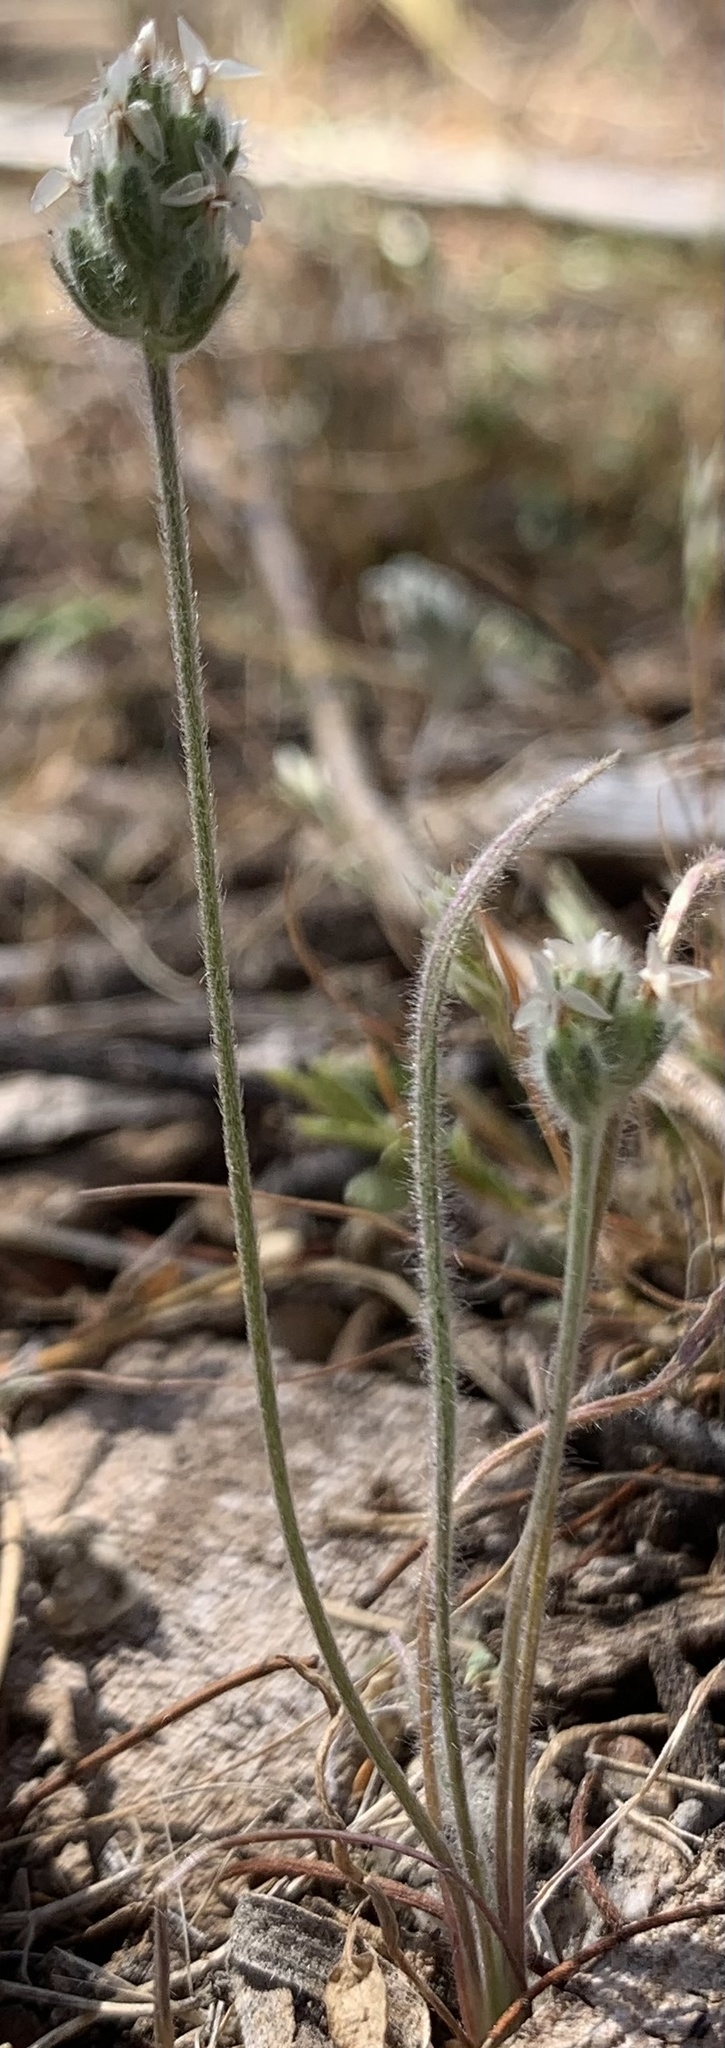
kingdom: Plantae
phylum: Tracheophyta
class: Magnoliopsida
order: Lamiales
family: Plantaginaceae
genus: Plantago
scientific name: Plantago patagonica
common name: Patagonia indian-wheat
